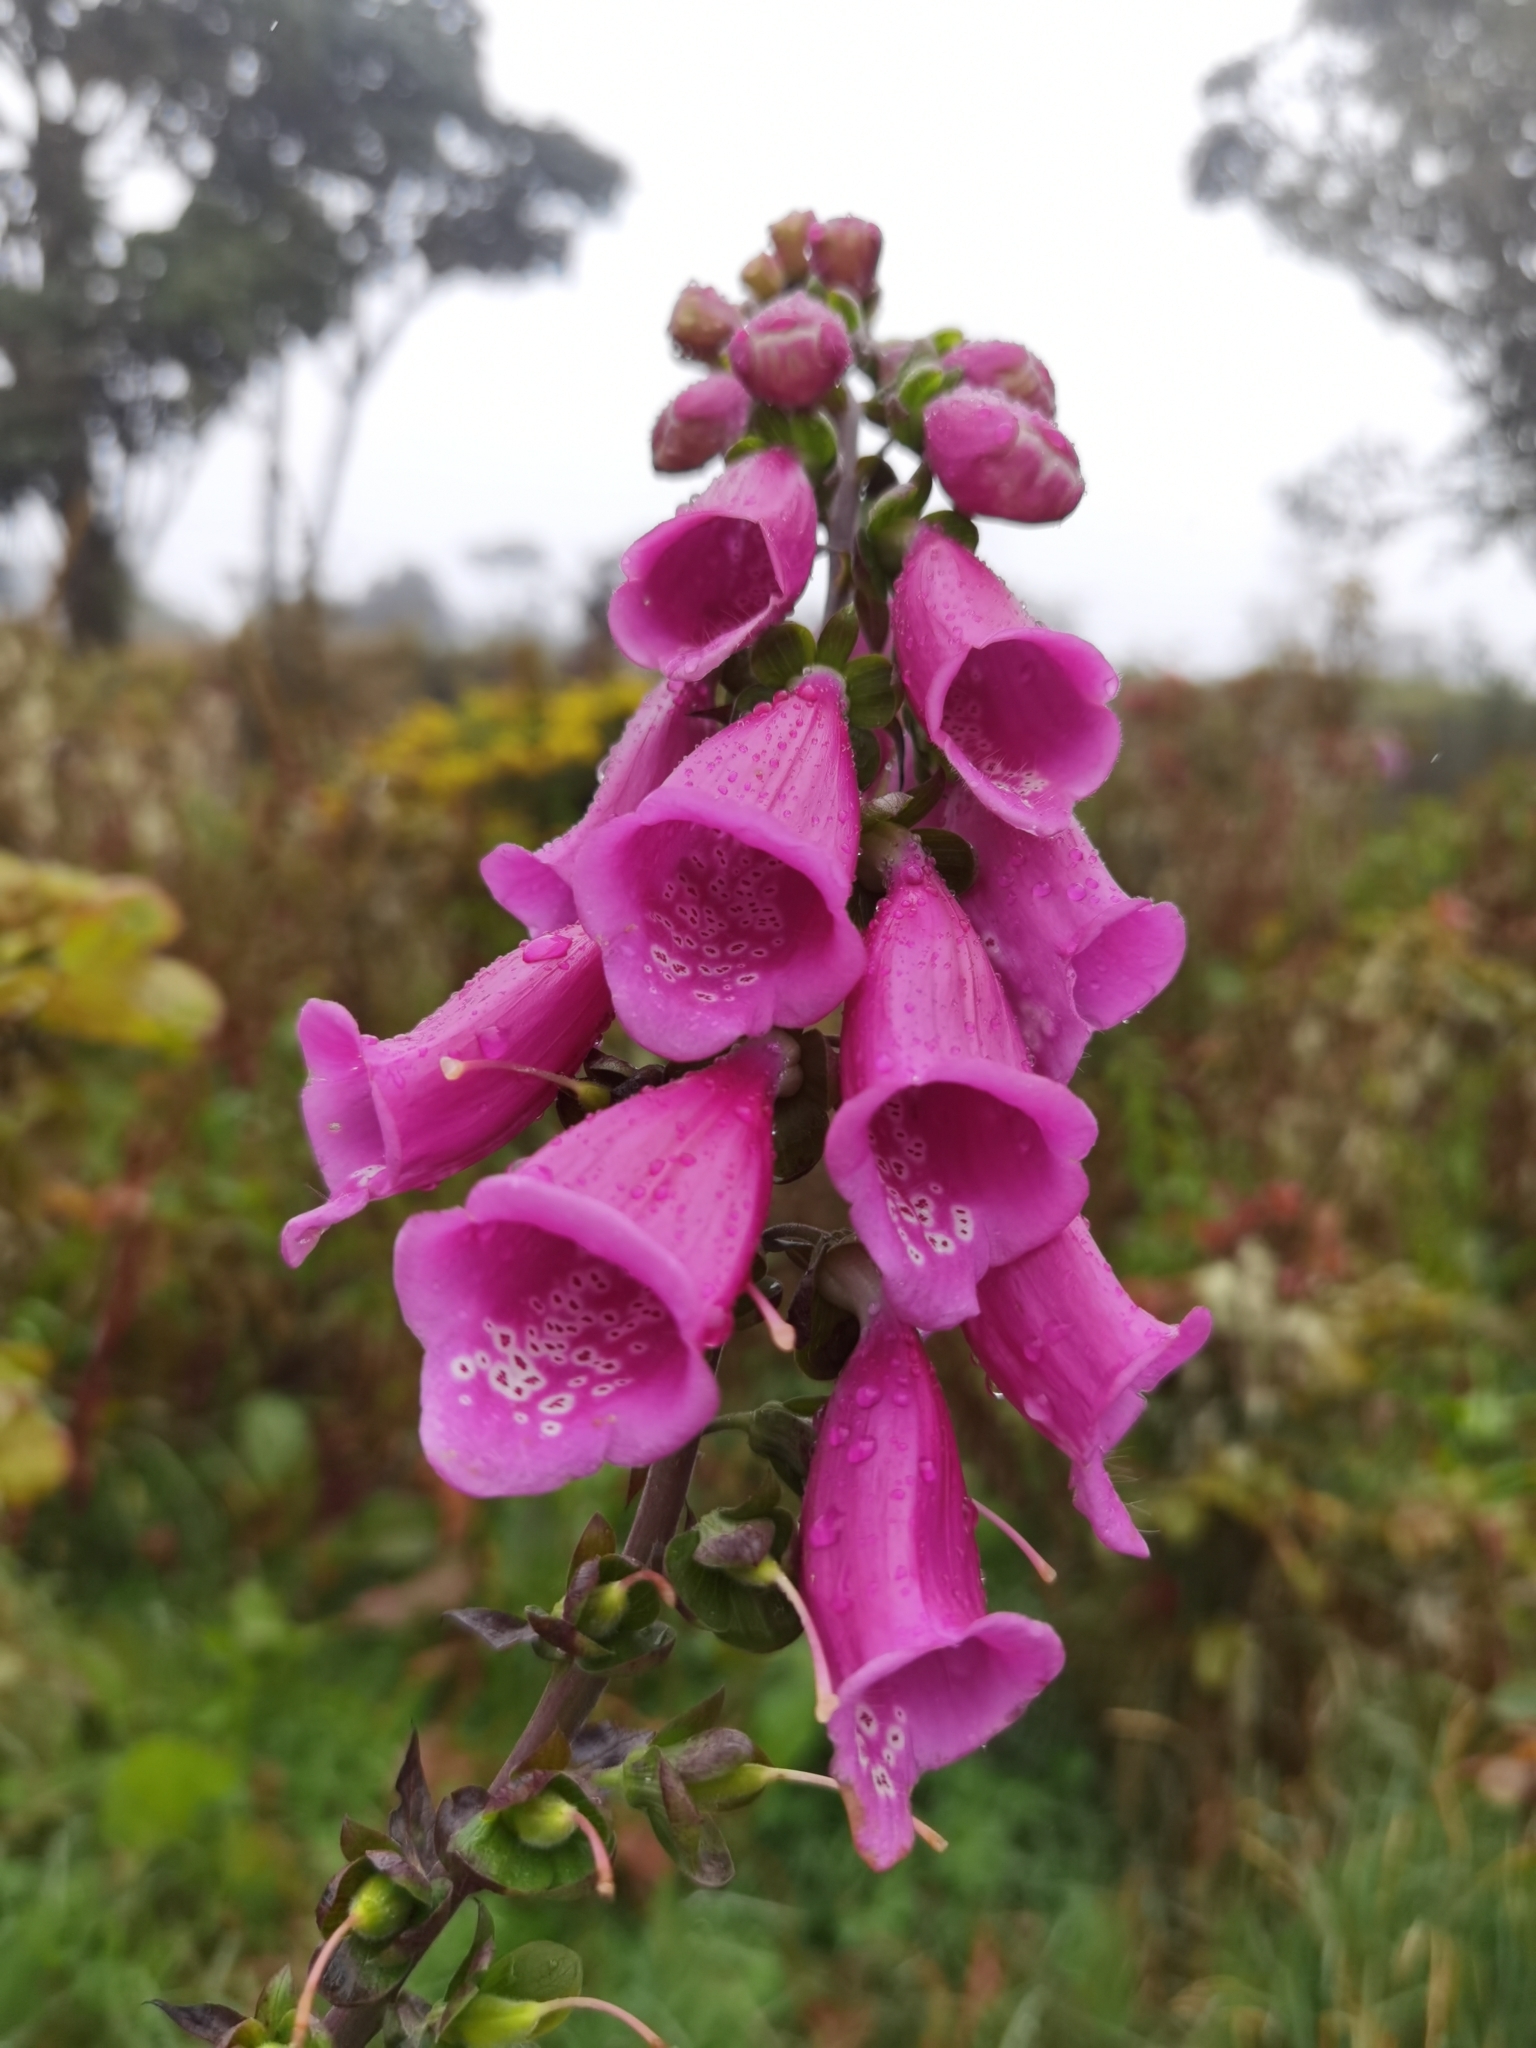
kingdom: Plantae
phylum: Tracheophyta
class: Magnoliopsida
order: Lamiales
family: Plantaginaceae
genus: Digitalis
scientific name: Digitalis purpurea
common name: Foxglove
